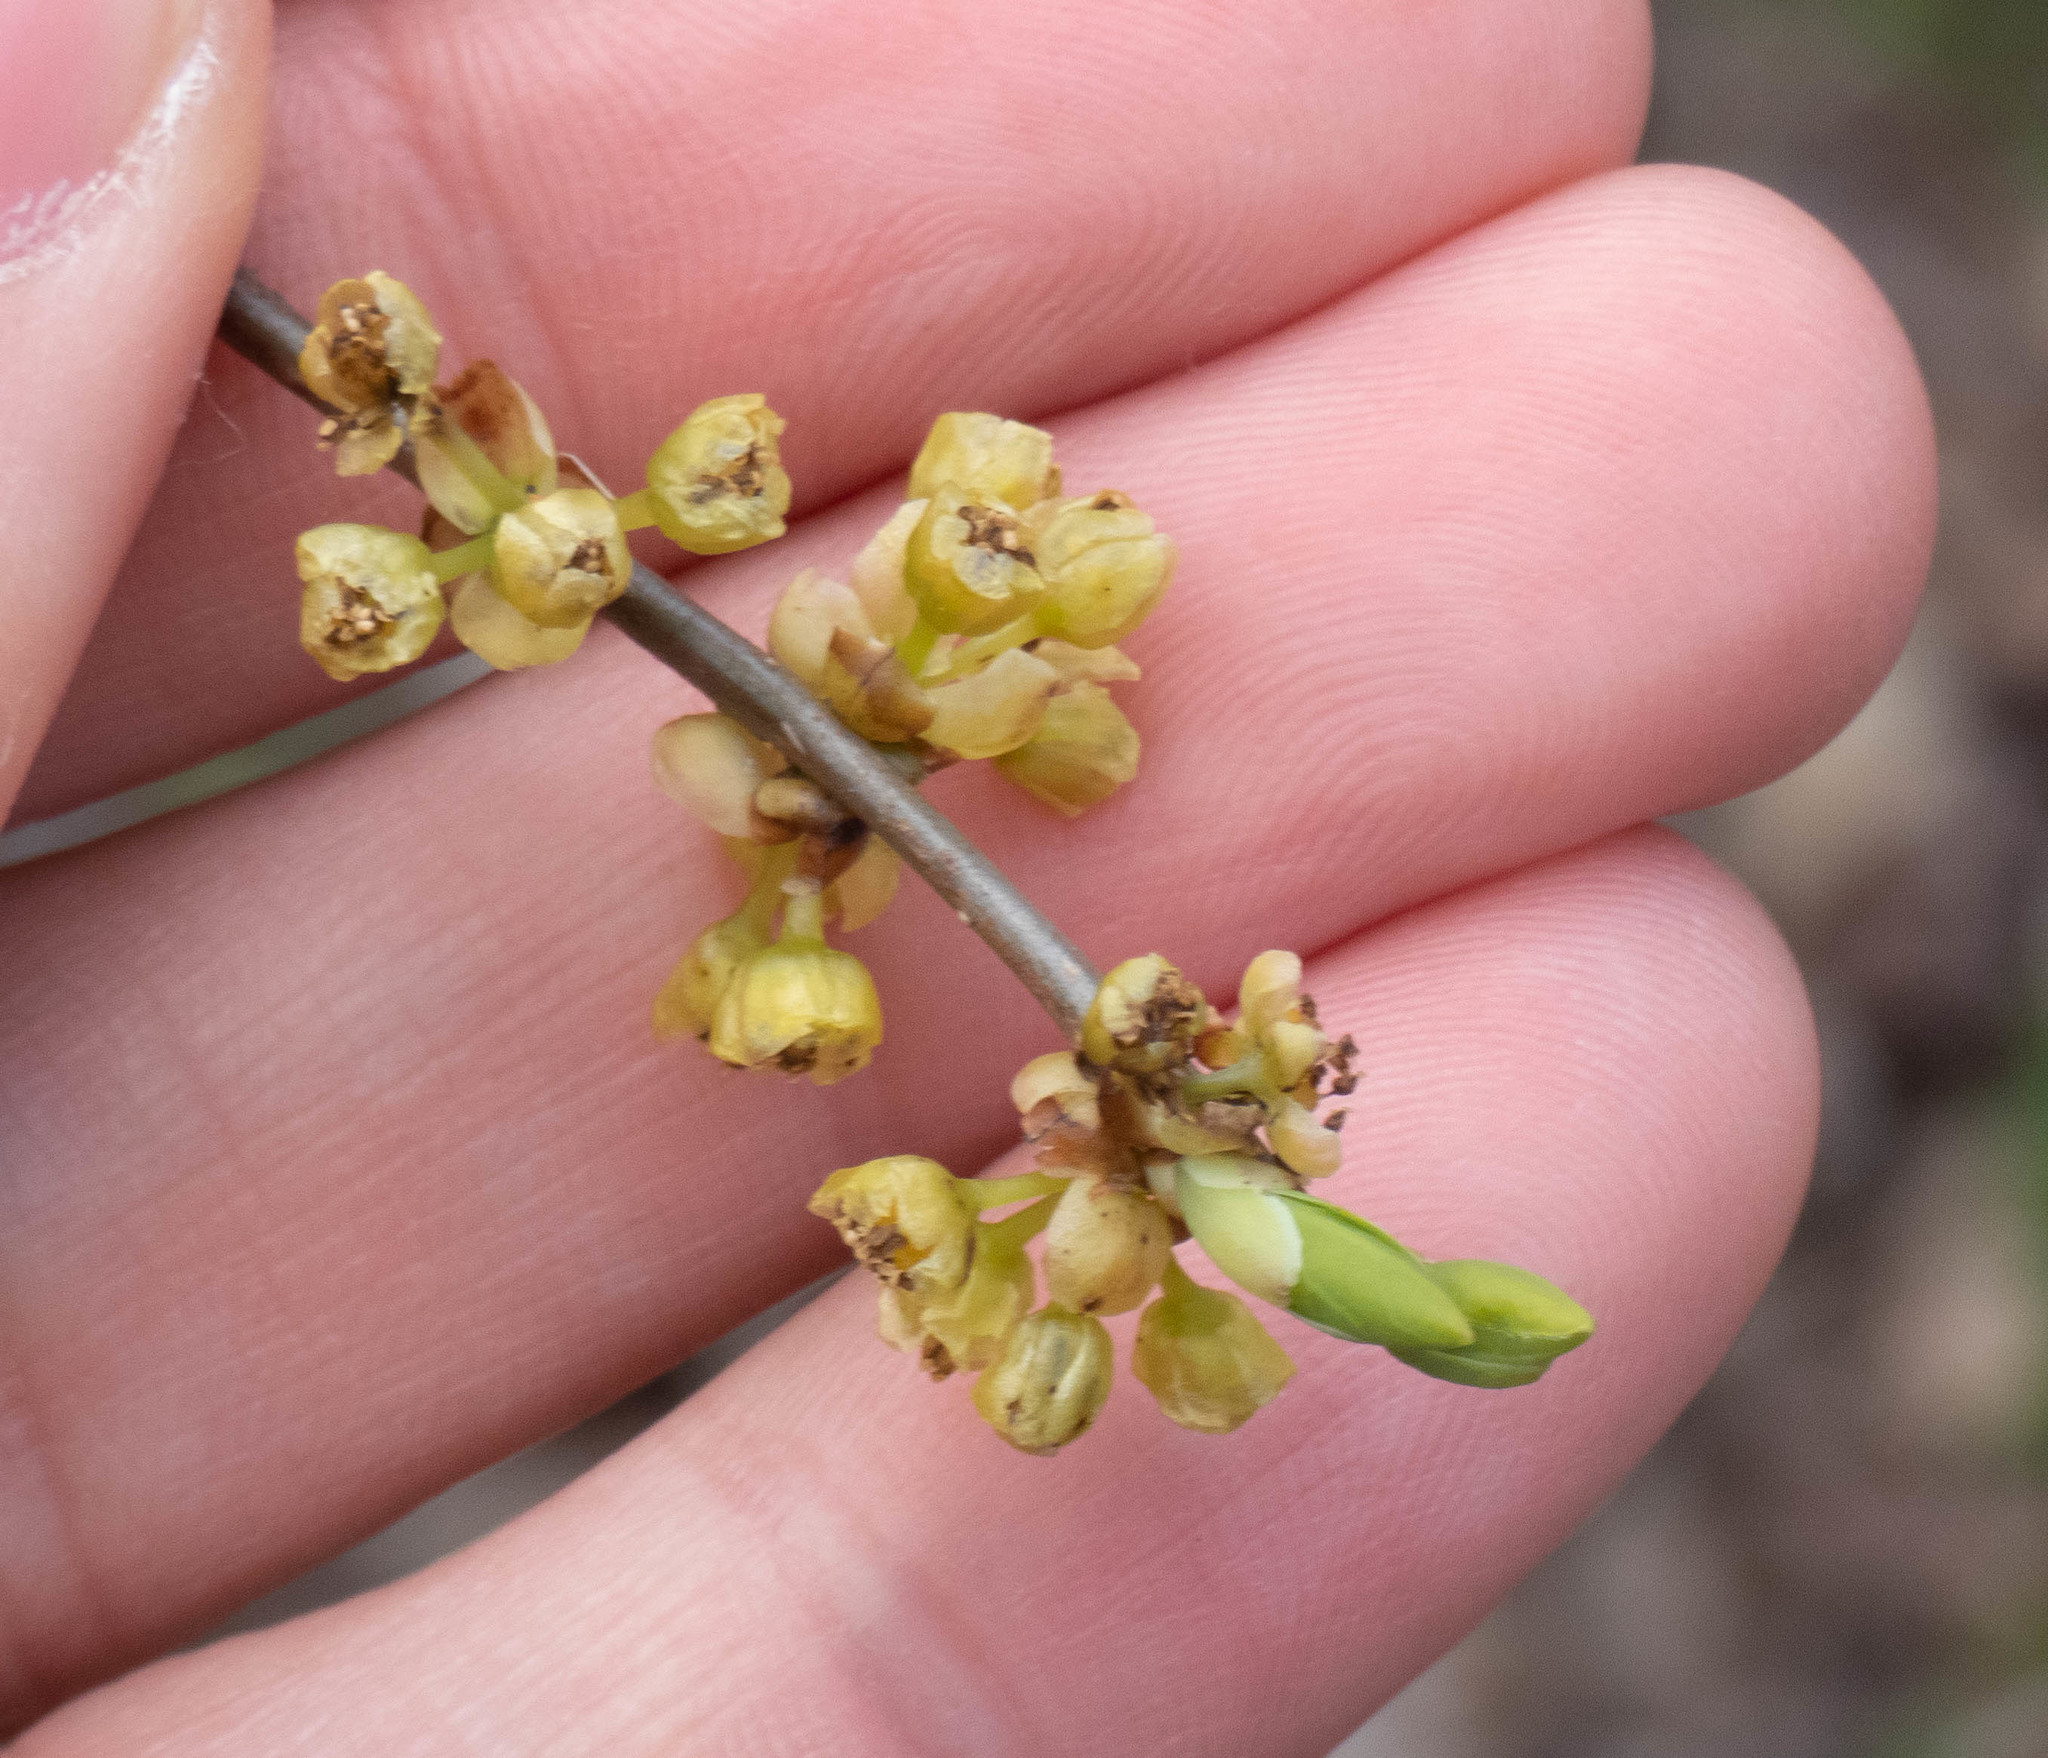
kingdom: Plantae
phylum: Tracheophyta
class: Magnoliopsida
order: Laurales
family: Lauraceae
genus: Lindera
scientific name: Lindera benzoin
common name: Spicebush
